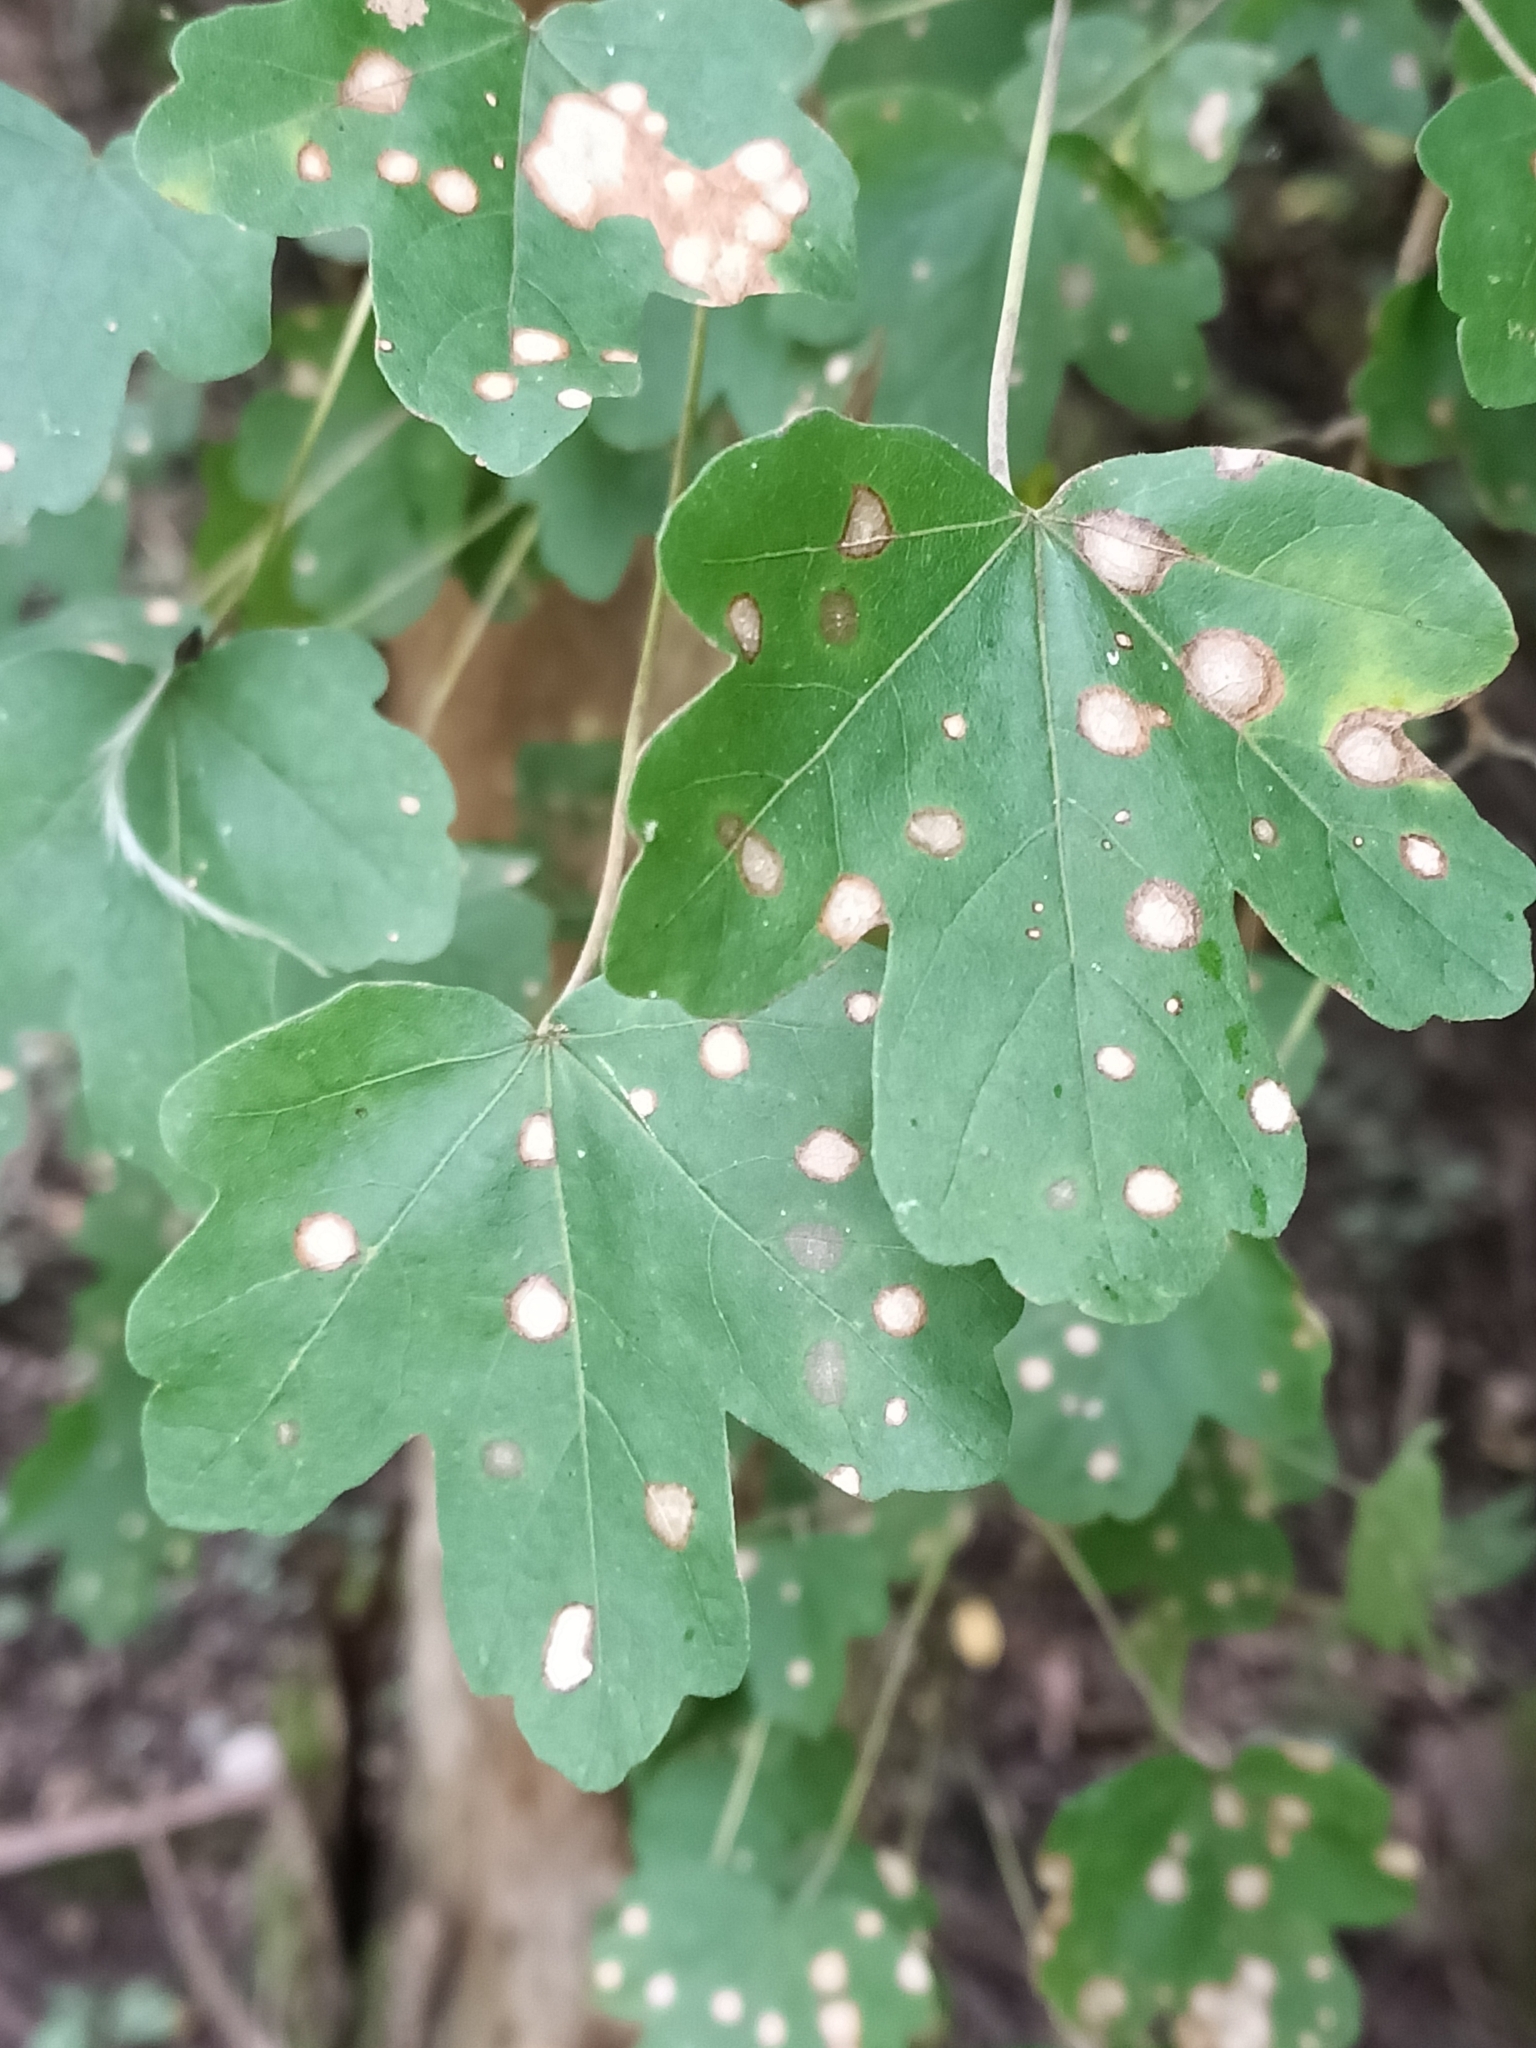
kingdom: Plantae
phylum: Tracheophyta
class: Magnoliopsida
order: Sapindales
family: Sapindaceae
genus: Acer
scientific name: Acer campestre
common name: Field maple
